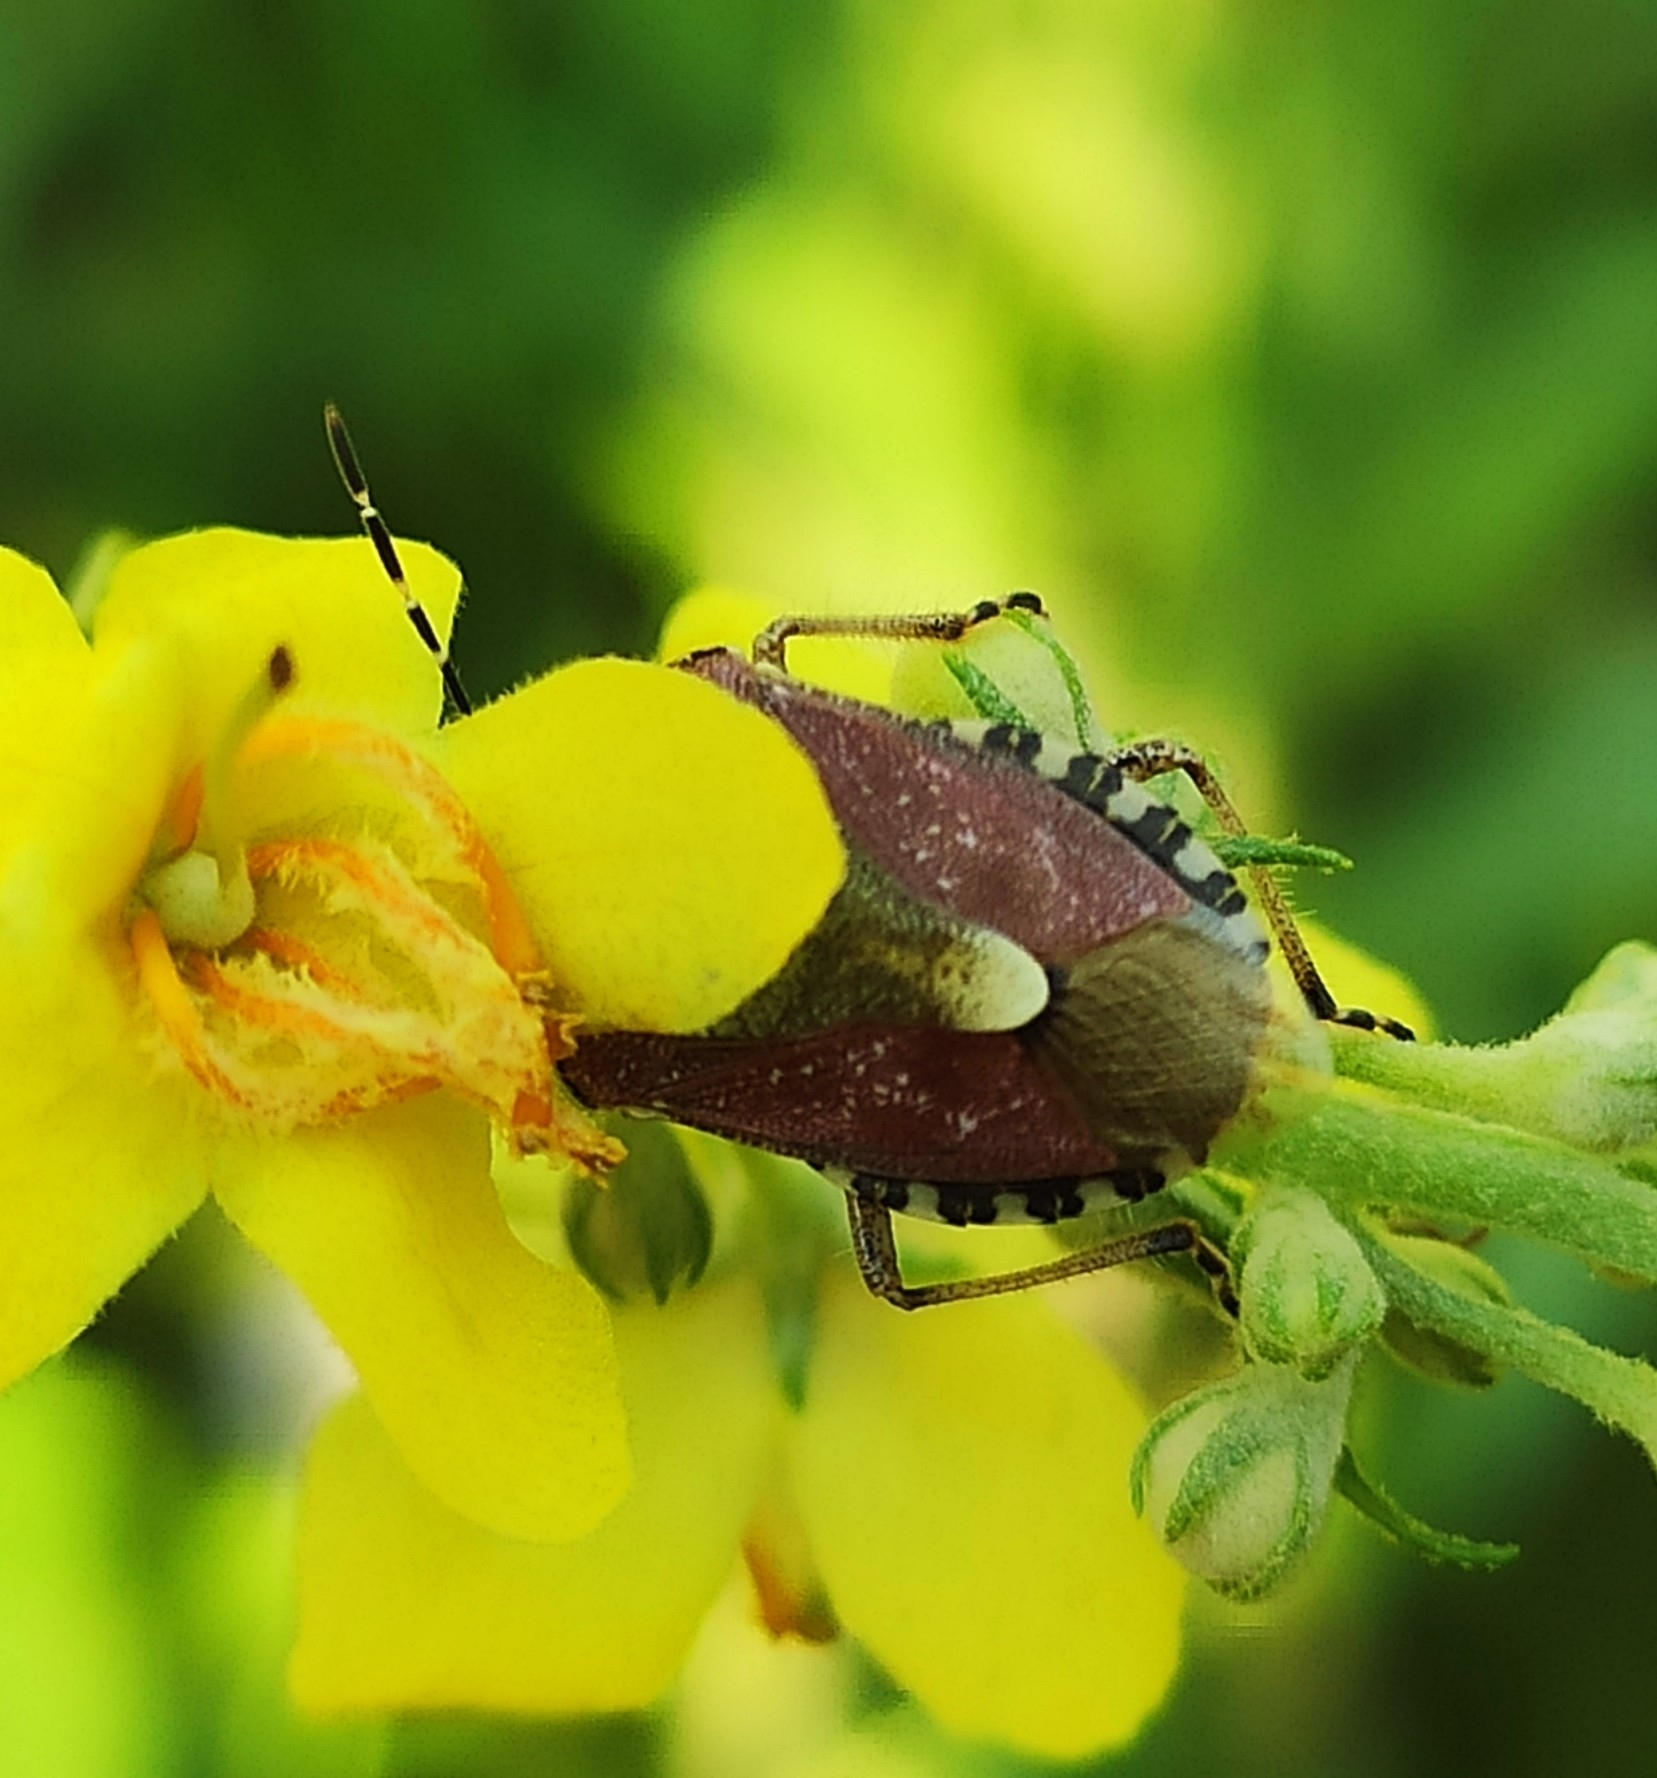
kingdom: Animalia
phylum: Arthropoda
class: Insecta
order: Hemiptera
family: Pentatomidae
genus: Dolycoris
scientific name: Dolycoris baccarum
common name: Sloe bug
